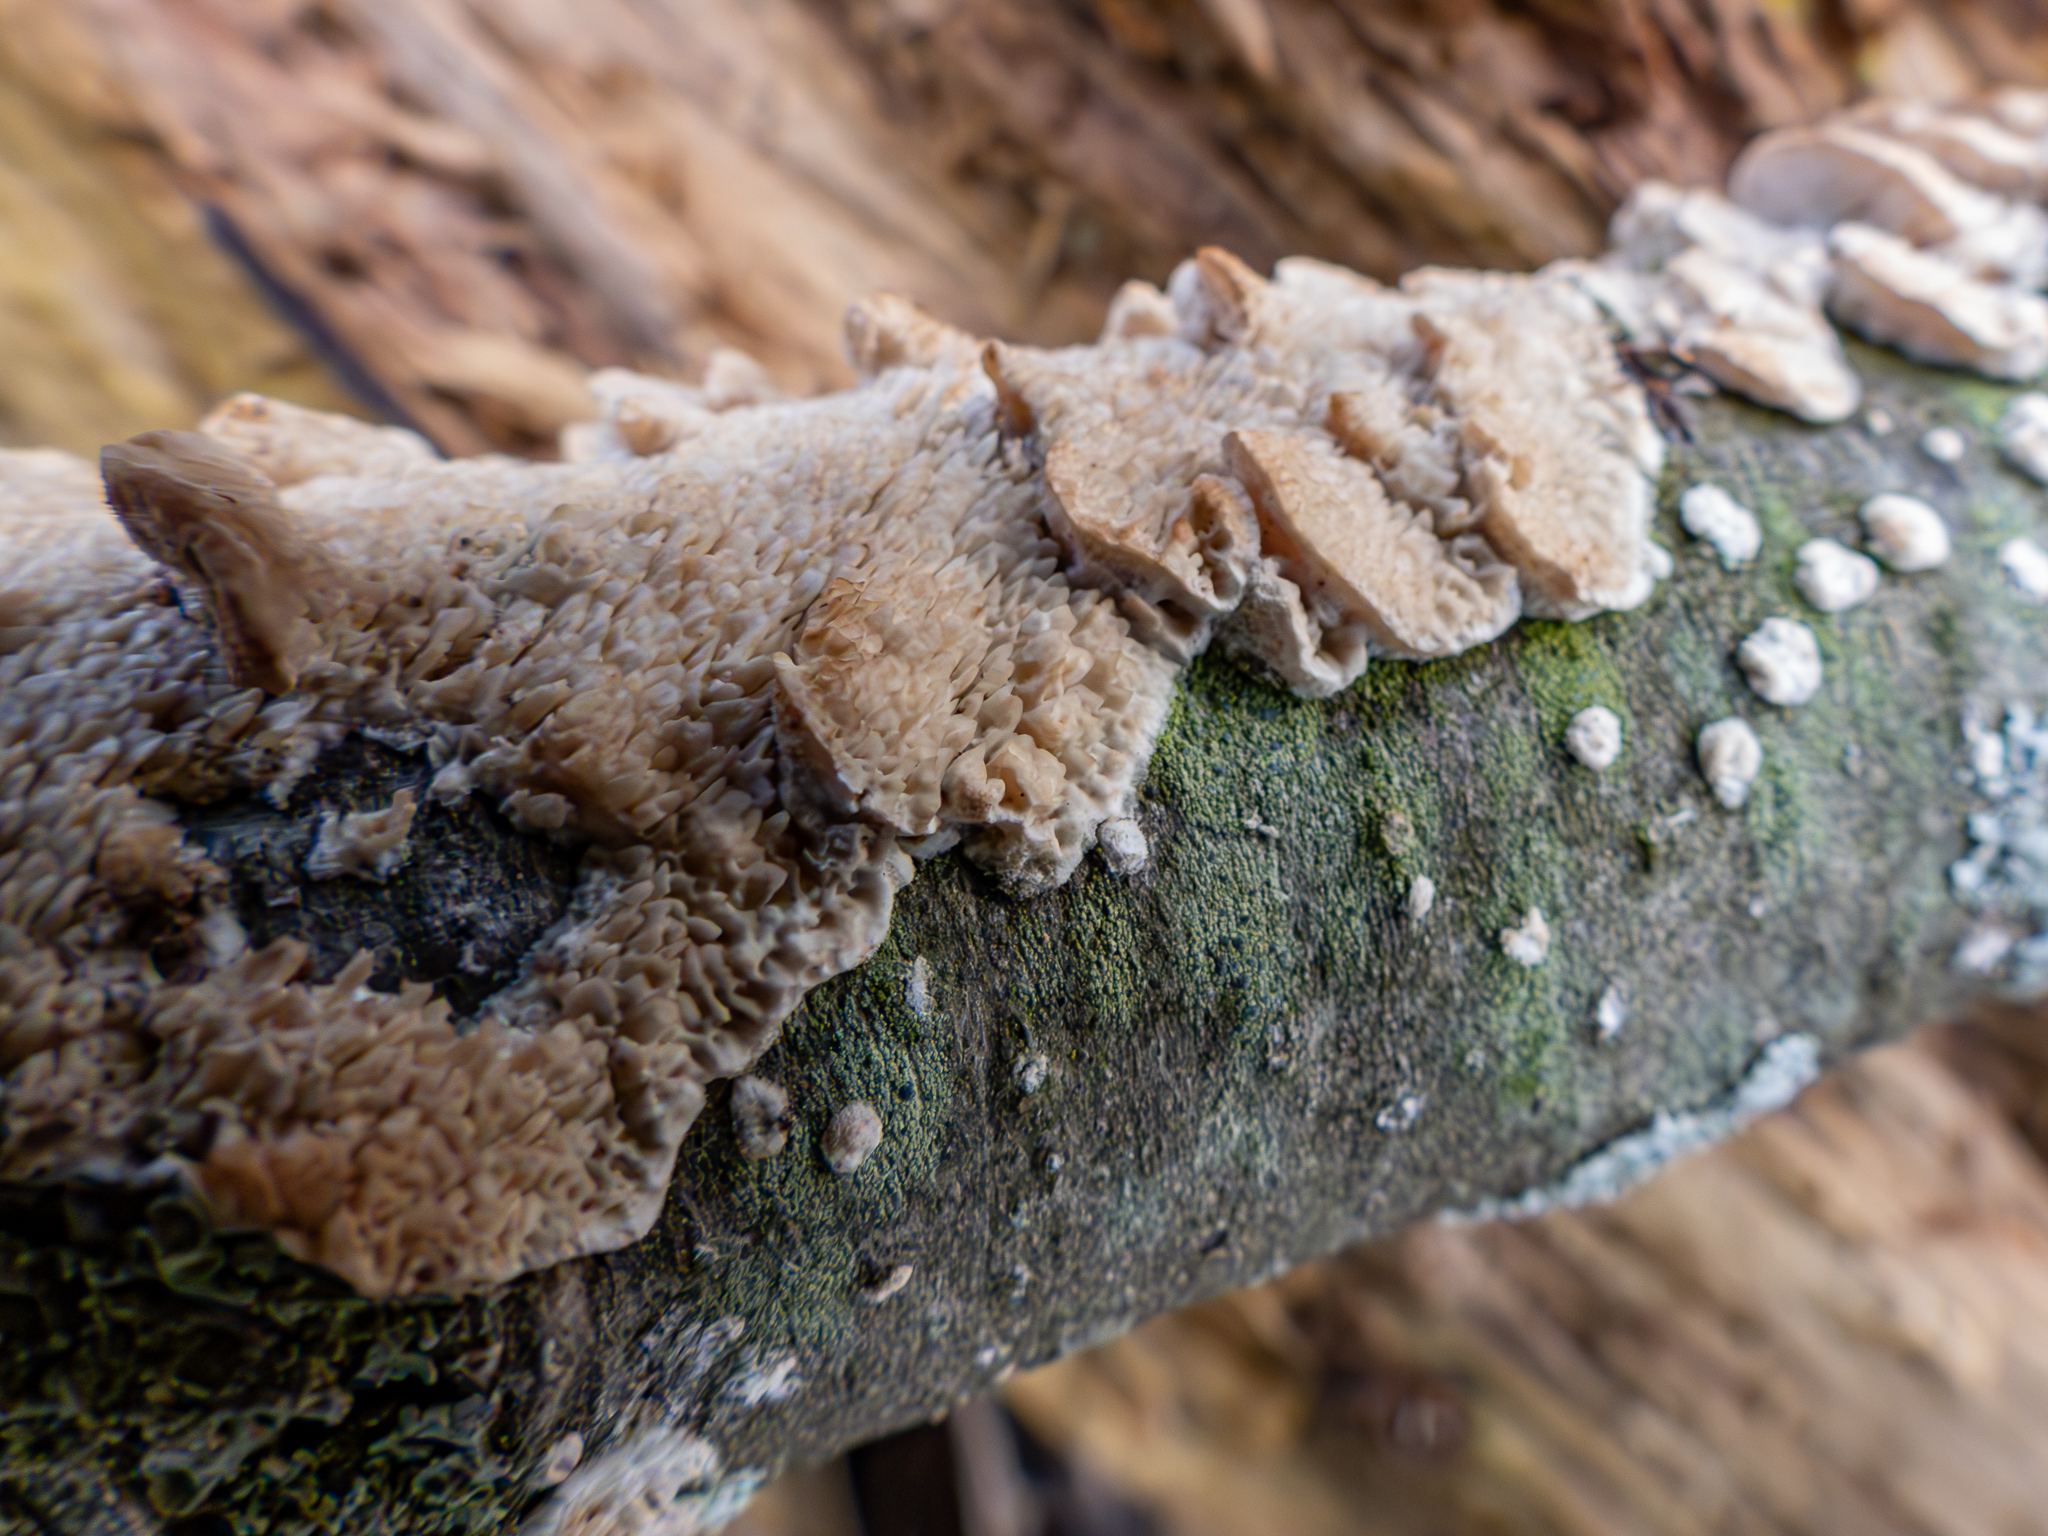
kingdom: Fungi
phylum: Basidiomycota
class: Agaricomycetes
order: Polyporales
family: Irpicaceae
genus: Irpex
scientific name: Irpex lacteus
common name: Milk-white toothed polypore
